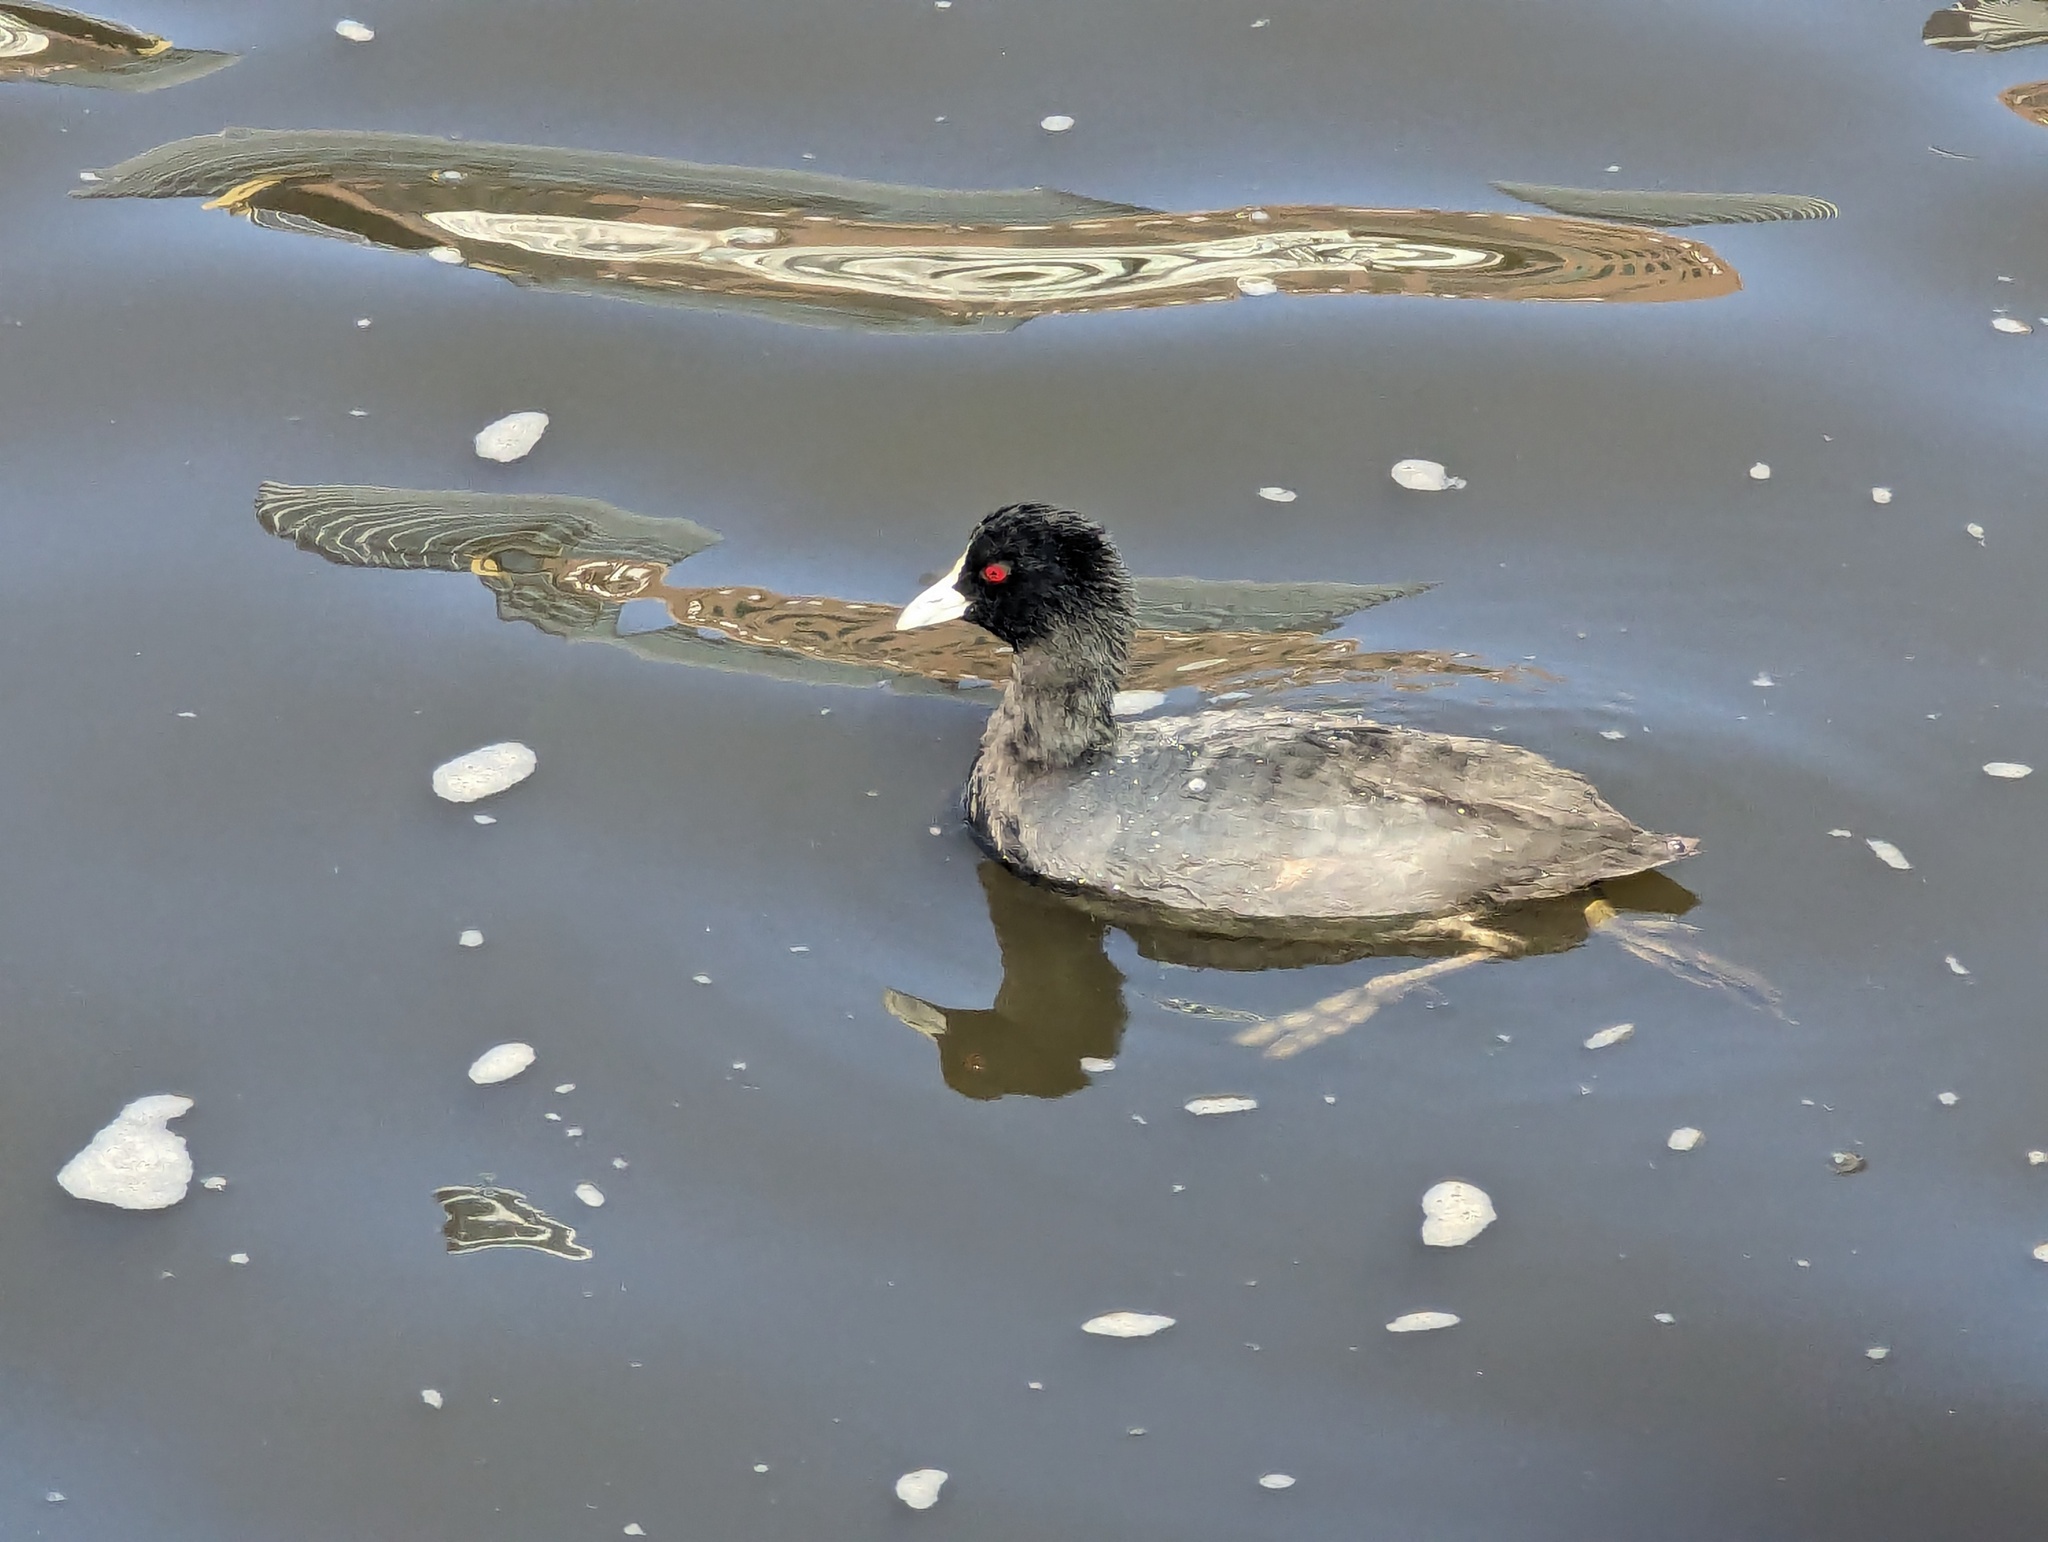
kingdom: Animalia
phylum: Chordata
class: Aves
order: Gruiformes
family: Rallidae
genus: Fulica
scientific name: Fulica atra
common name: Eurasian coot
